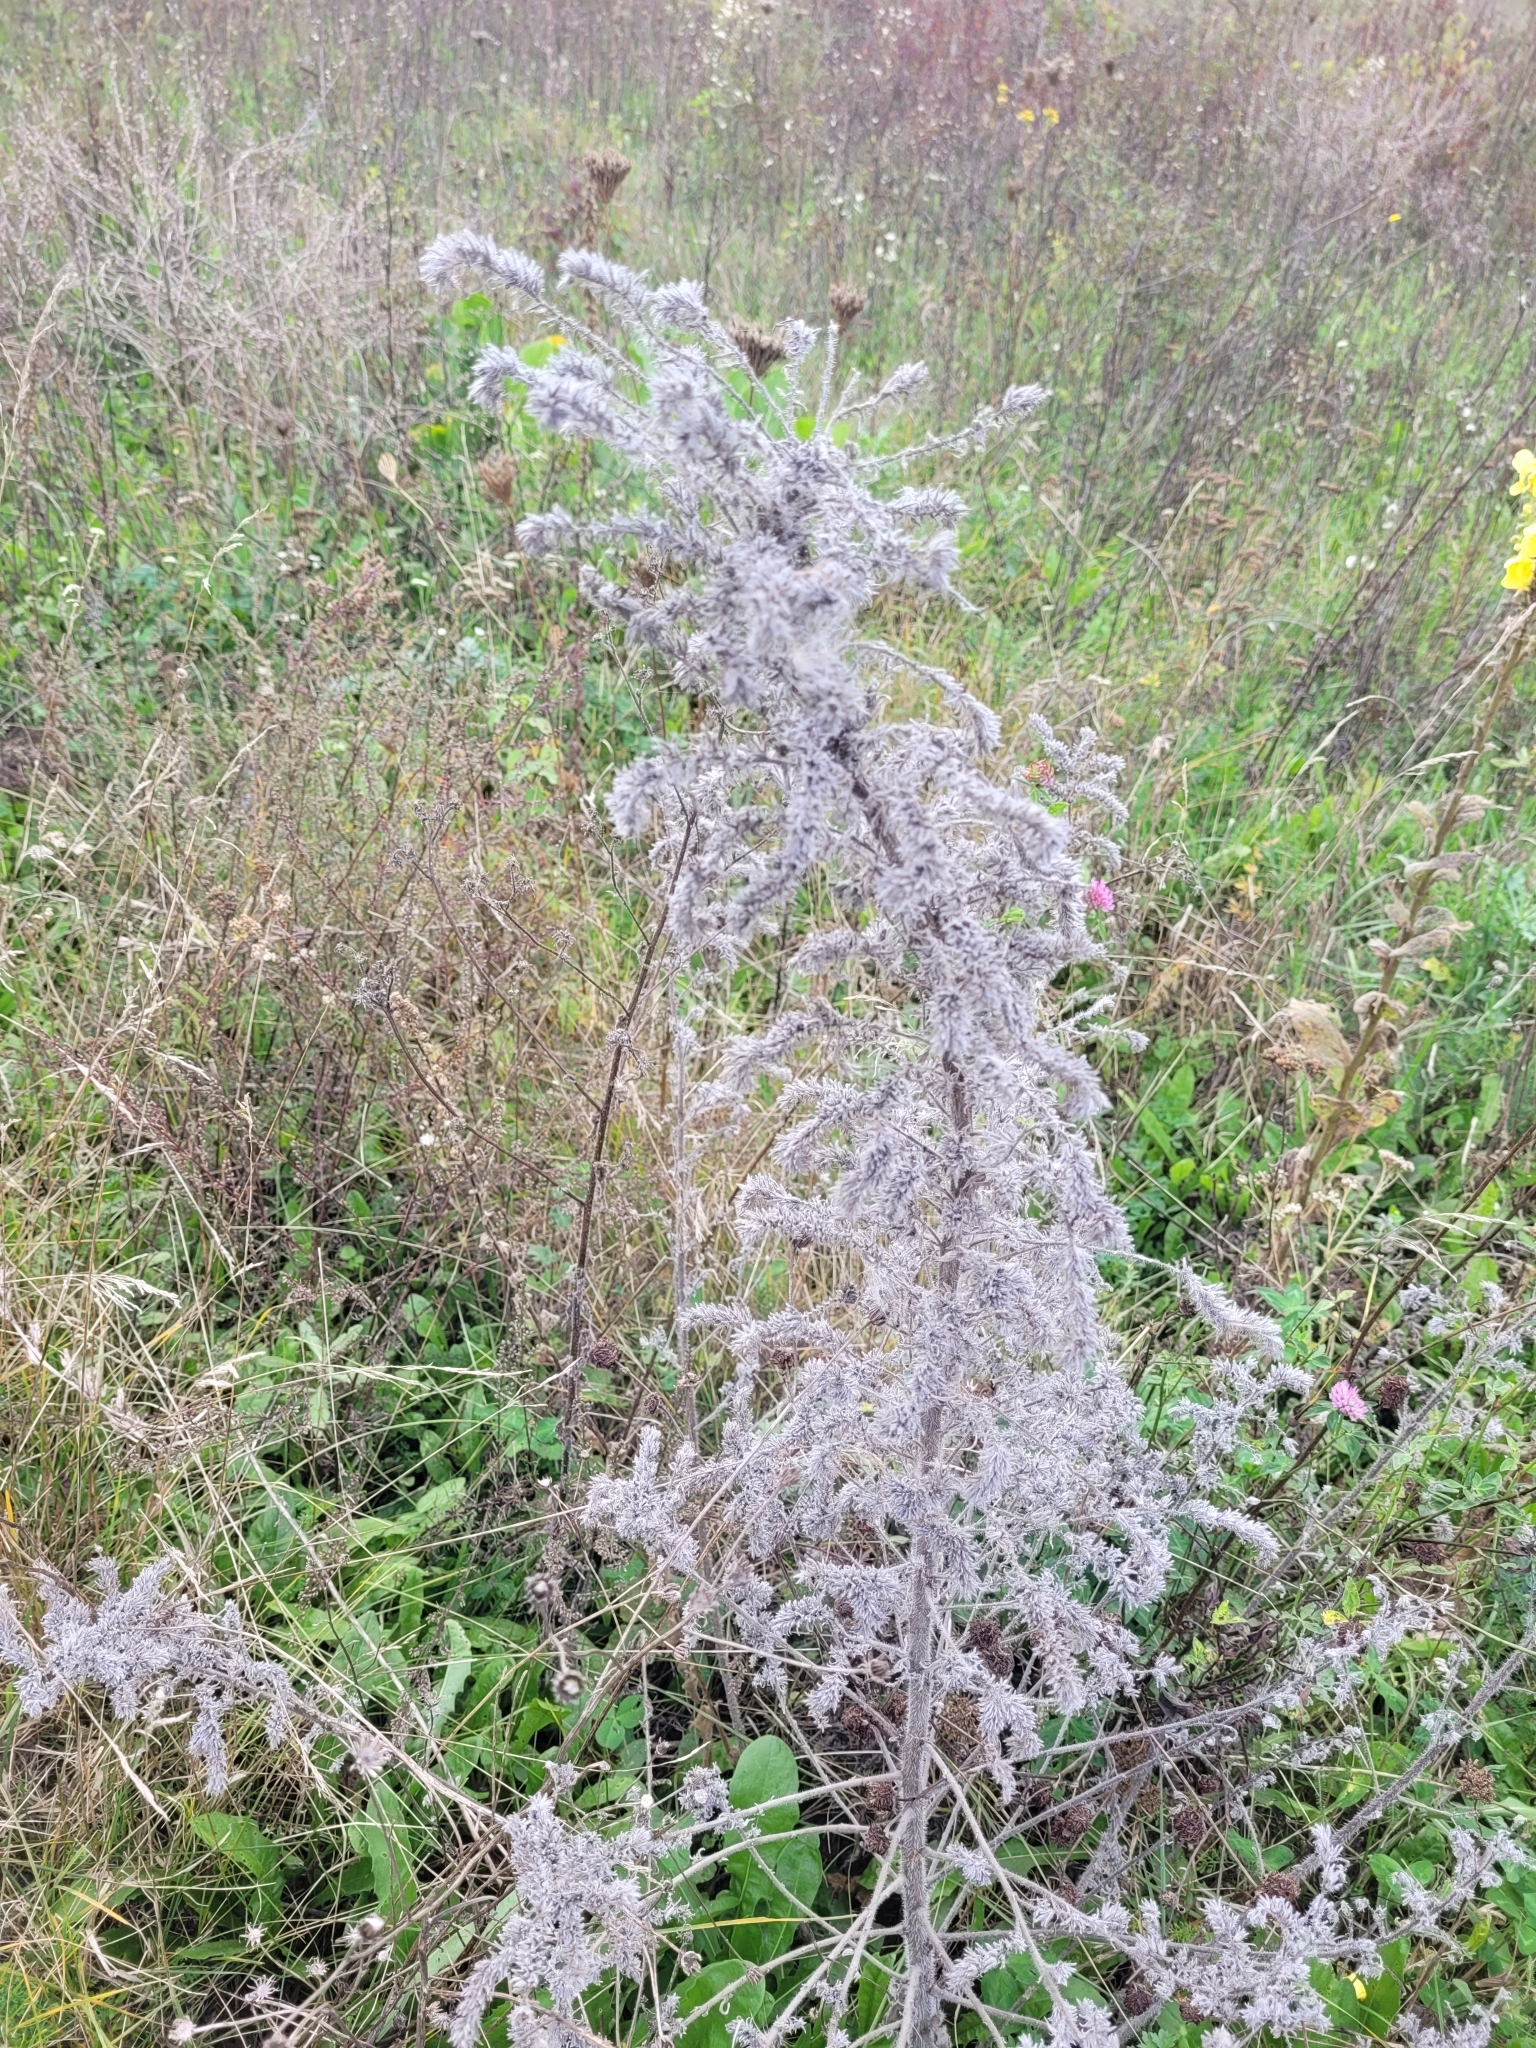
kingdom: Plantae
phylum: Tracheophyta
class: Magnoliopsida
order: Boraginales
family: Boraginaceae
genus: Echium
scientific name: Echium vulgare
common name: Common viper's bugloss
